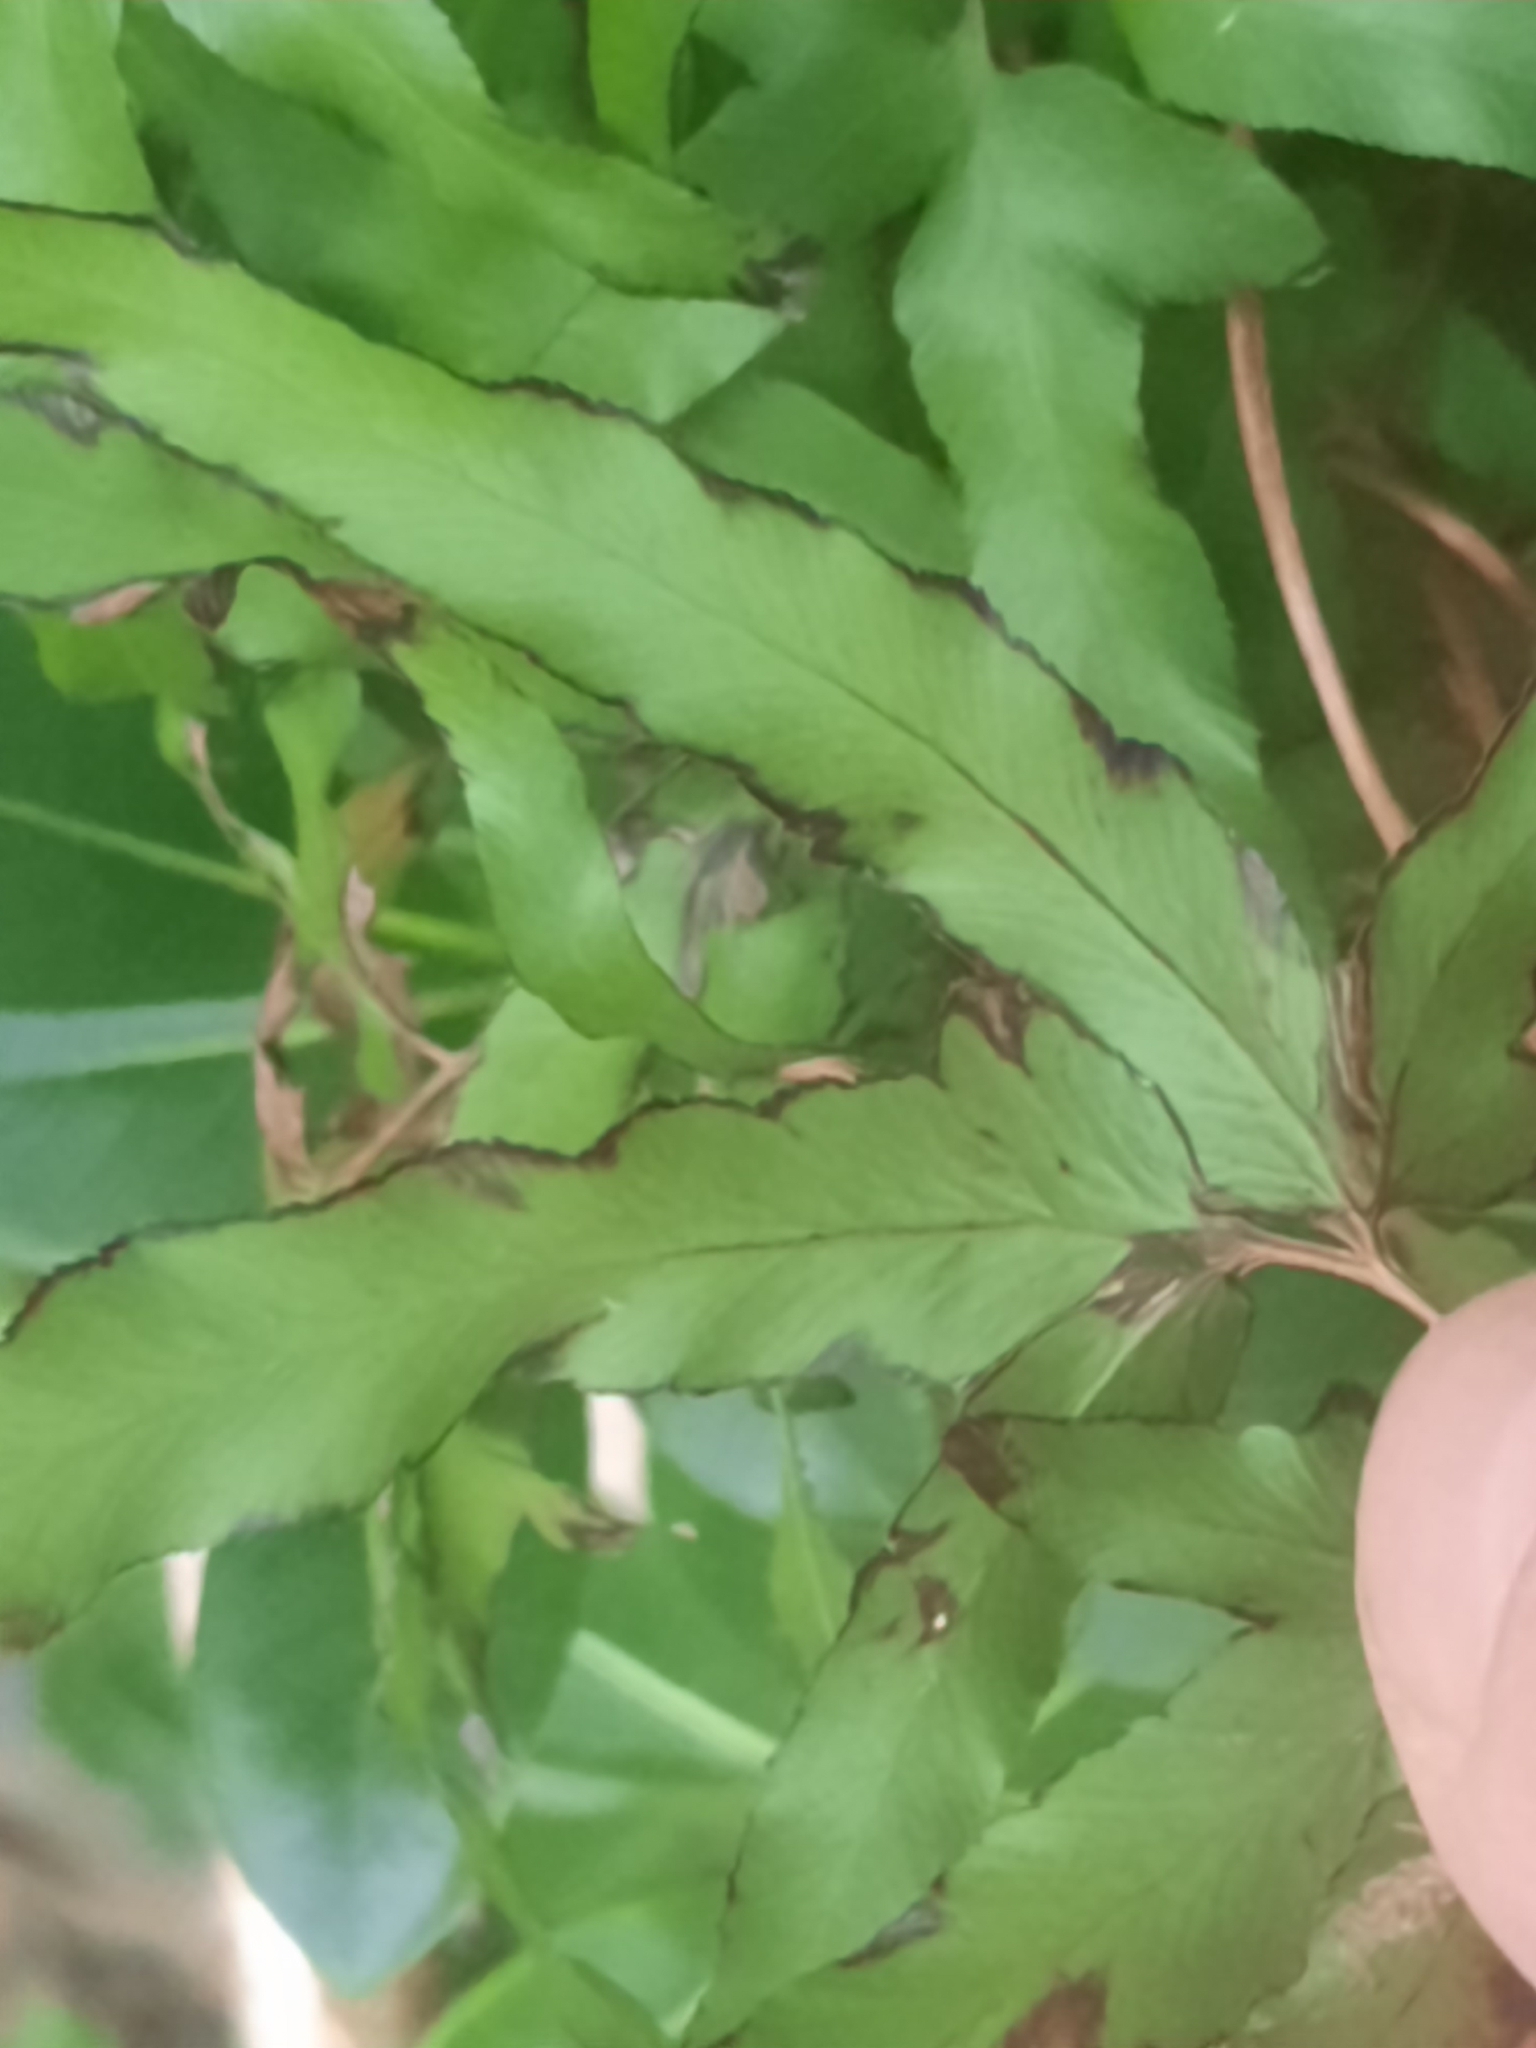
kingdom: Plantae
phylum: Tracheophyta
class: Polypodiopsida
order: Schizaeales
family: Lygodiaceae
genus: Lygodium
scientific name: Lygodium japonicum
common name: Japanese climbing fern
